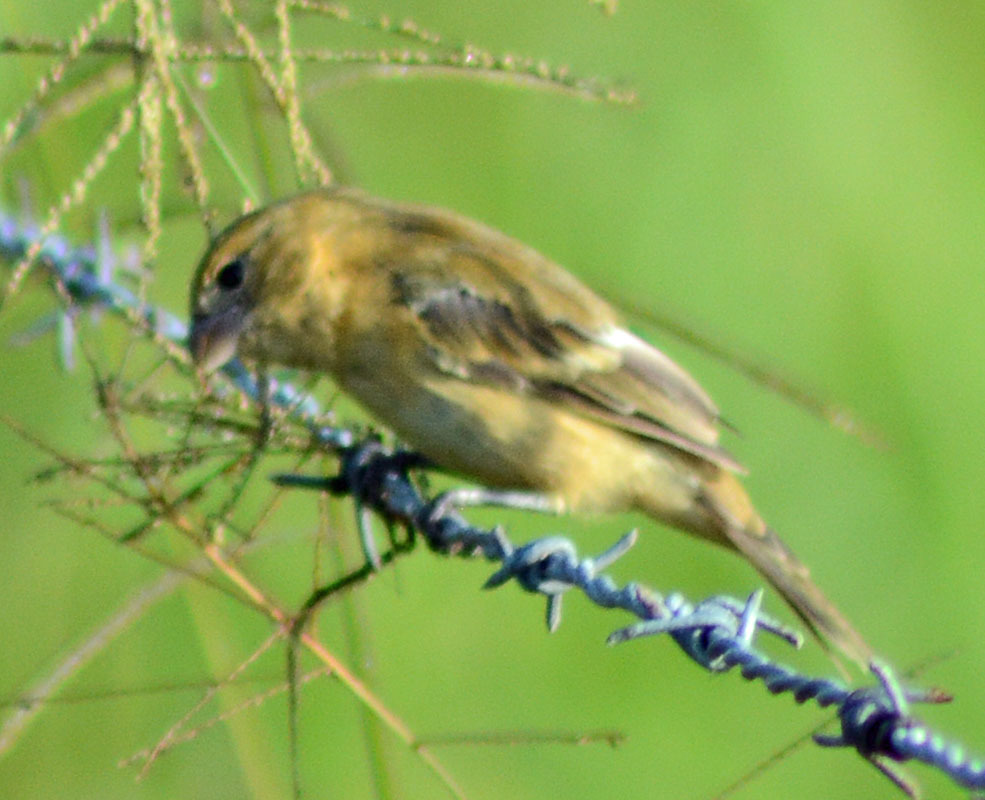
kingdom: Animalia
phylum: Chordata
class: Aves
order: Passeriformes
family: Thraupidae
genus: Sporophila
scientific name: Sporophila morelleti
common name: Morelet's seedeater
